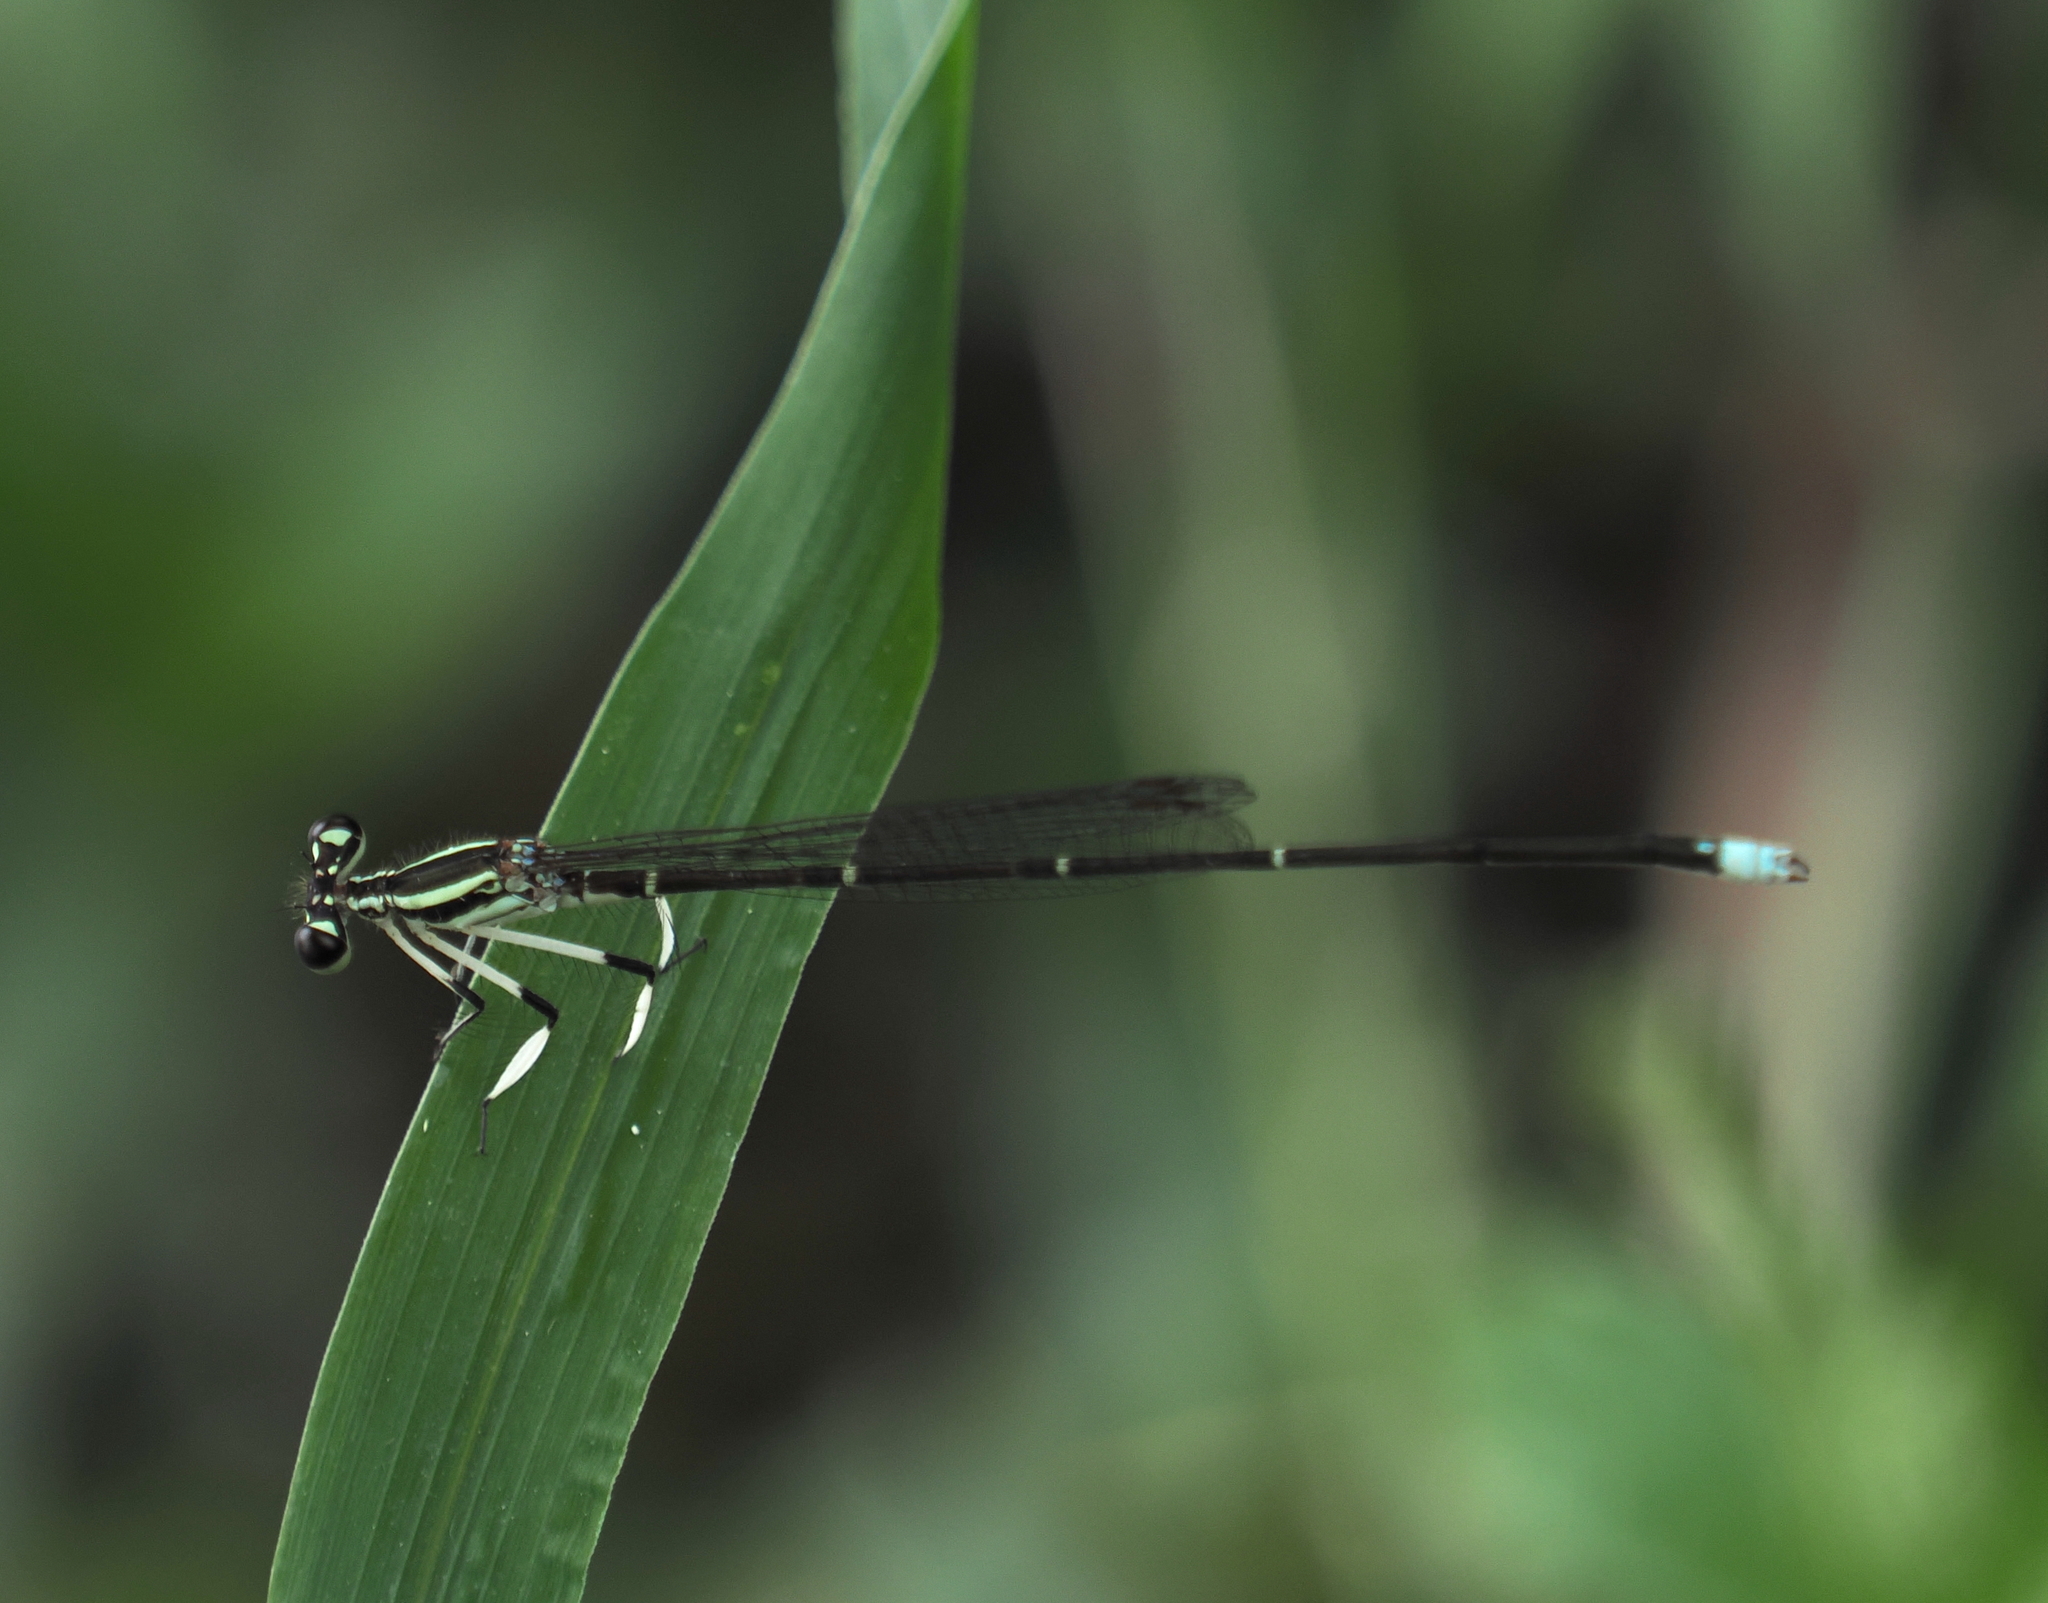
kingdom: Animalia
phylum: Arthropoda
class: Insecta
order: Odonata
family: Platycnemididae
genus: Pseudocopera
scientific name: Pseudocopera ciliata
